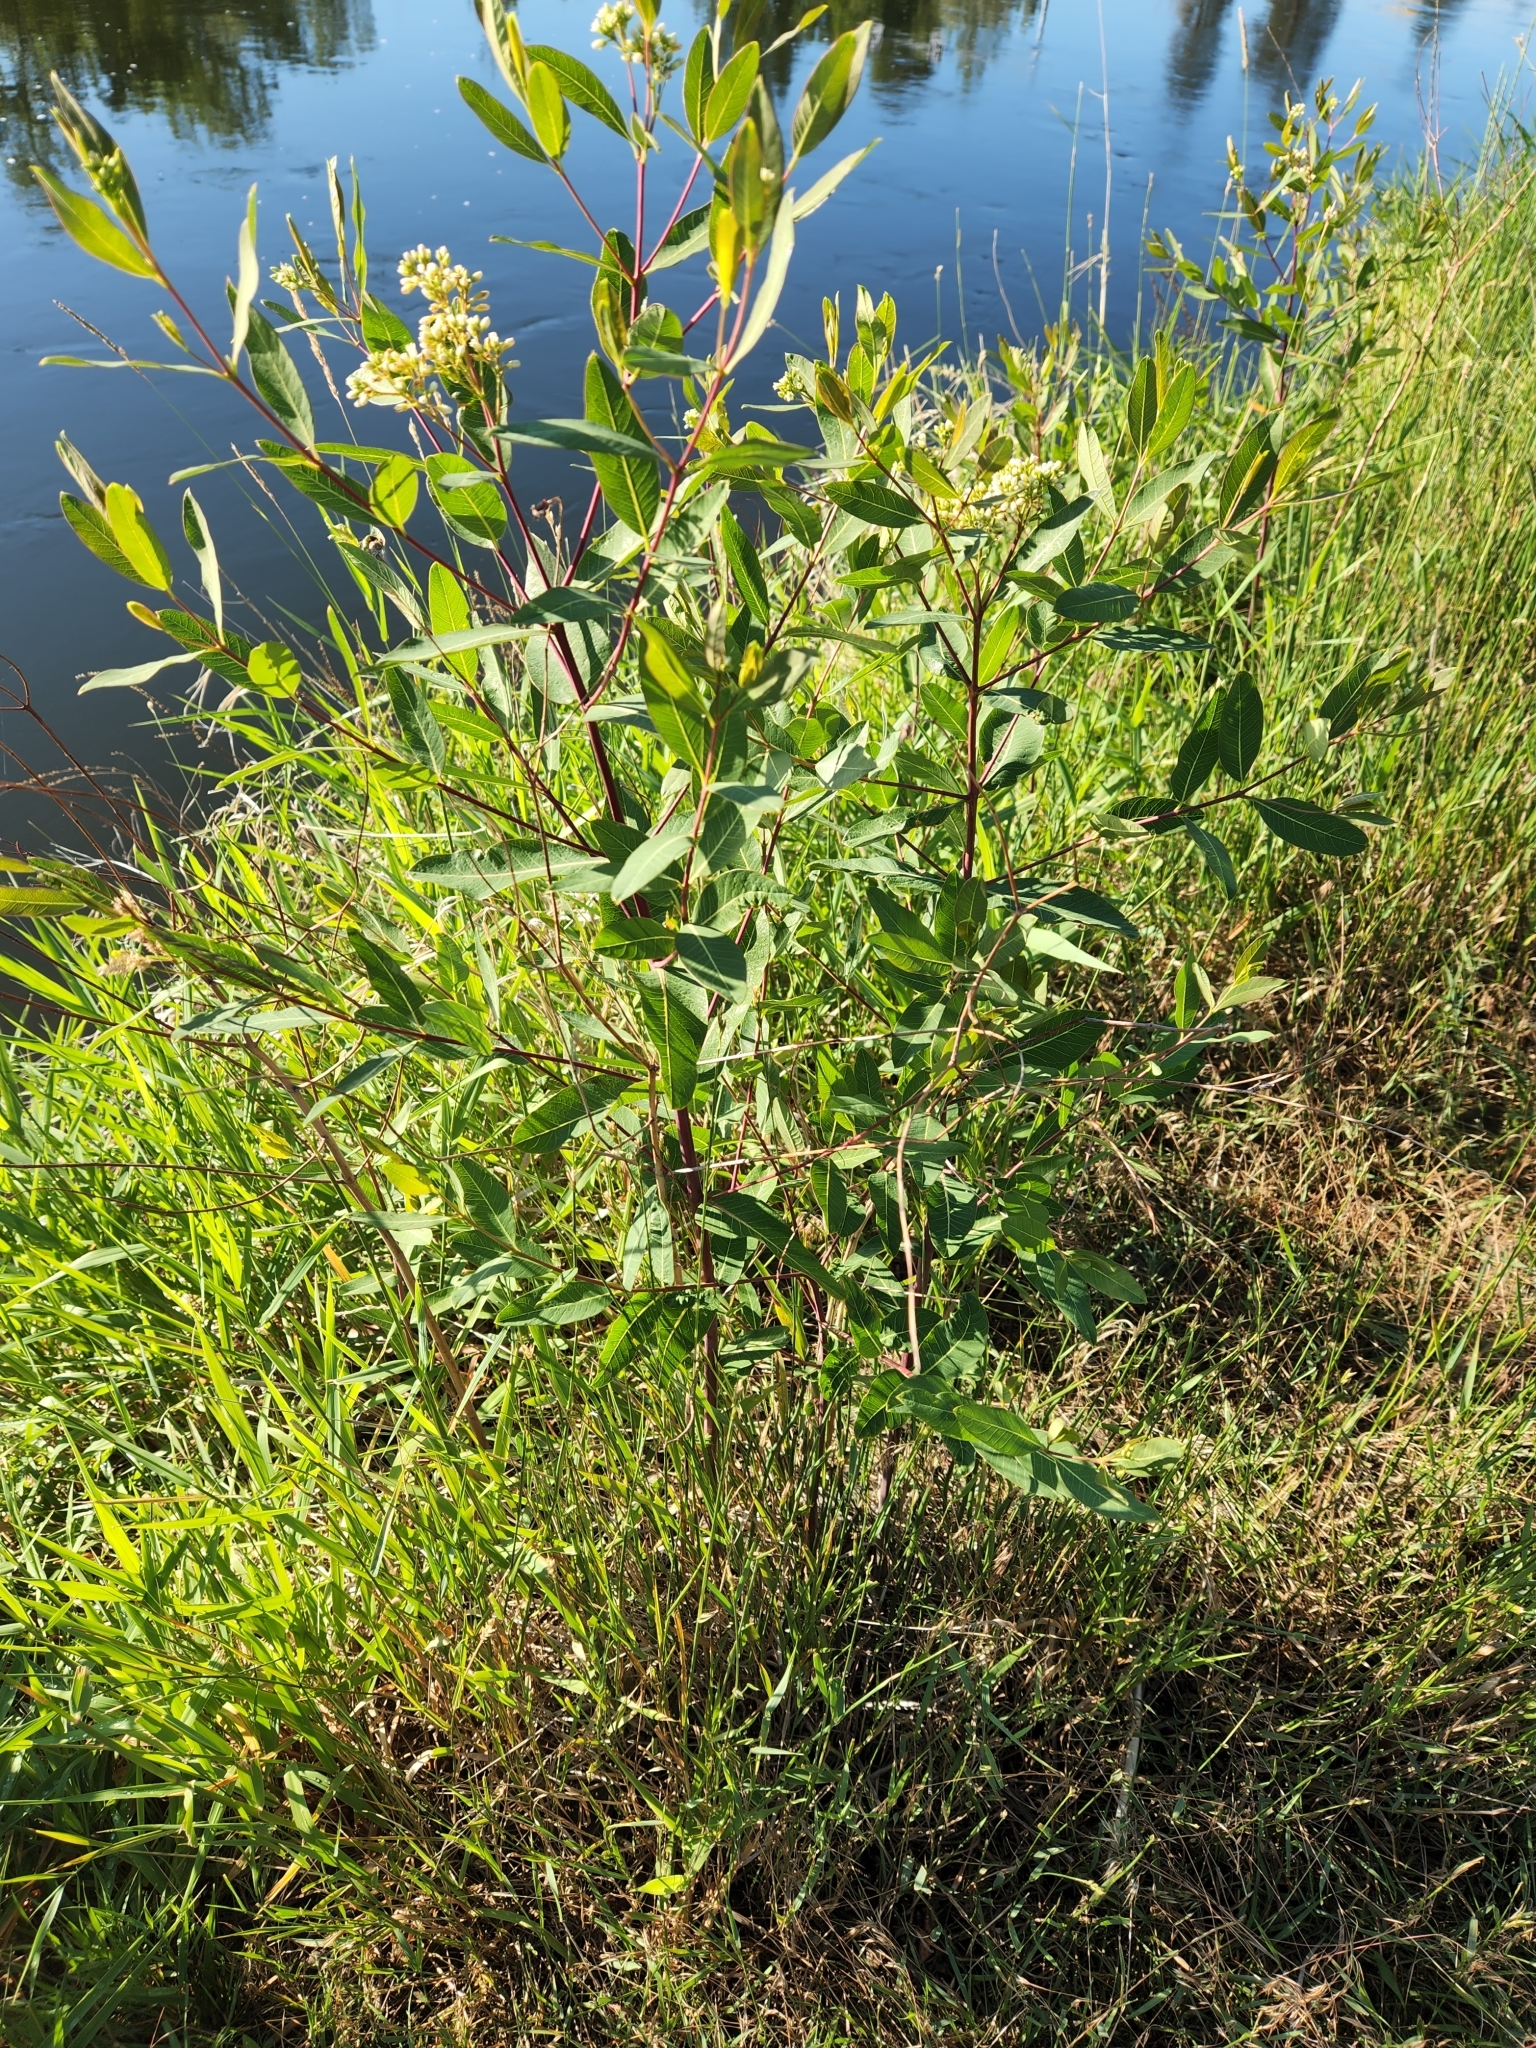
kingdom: Plantae
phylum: Tracheophyta
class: Magnoliopsida
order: Gentianales
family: Apocynaceae
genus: Apocynum
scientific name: Apocynum cannabinum
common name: Hemp dogbane
